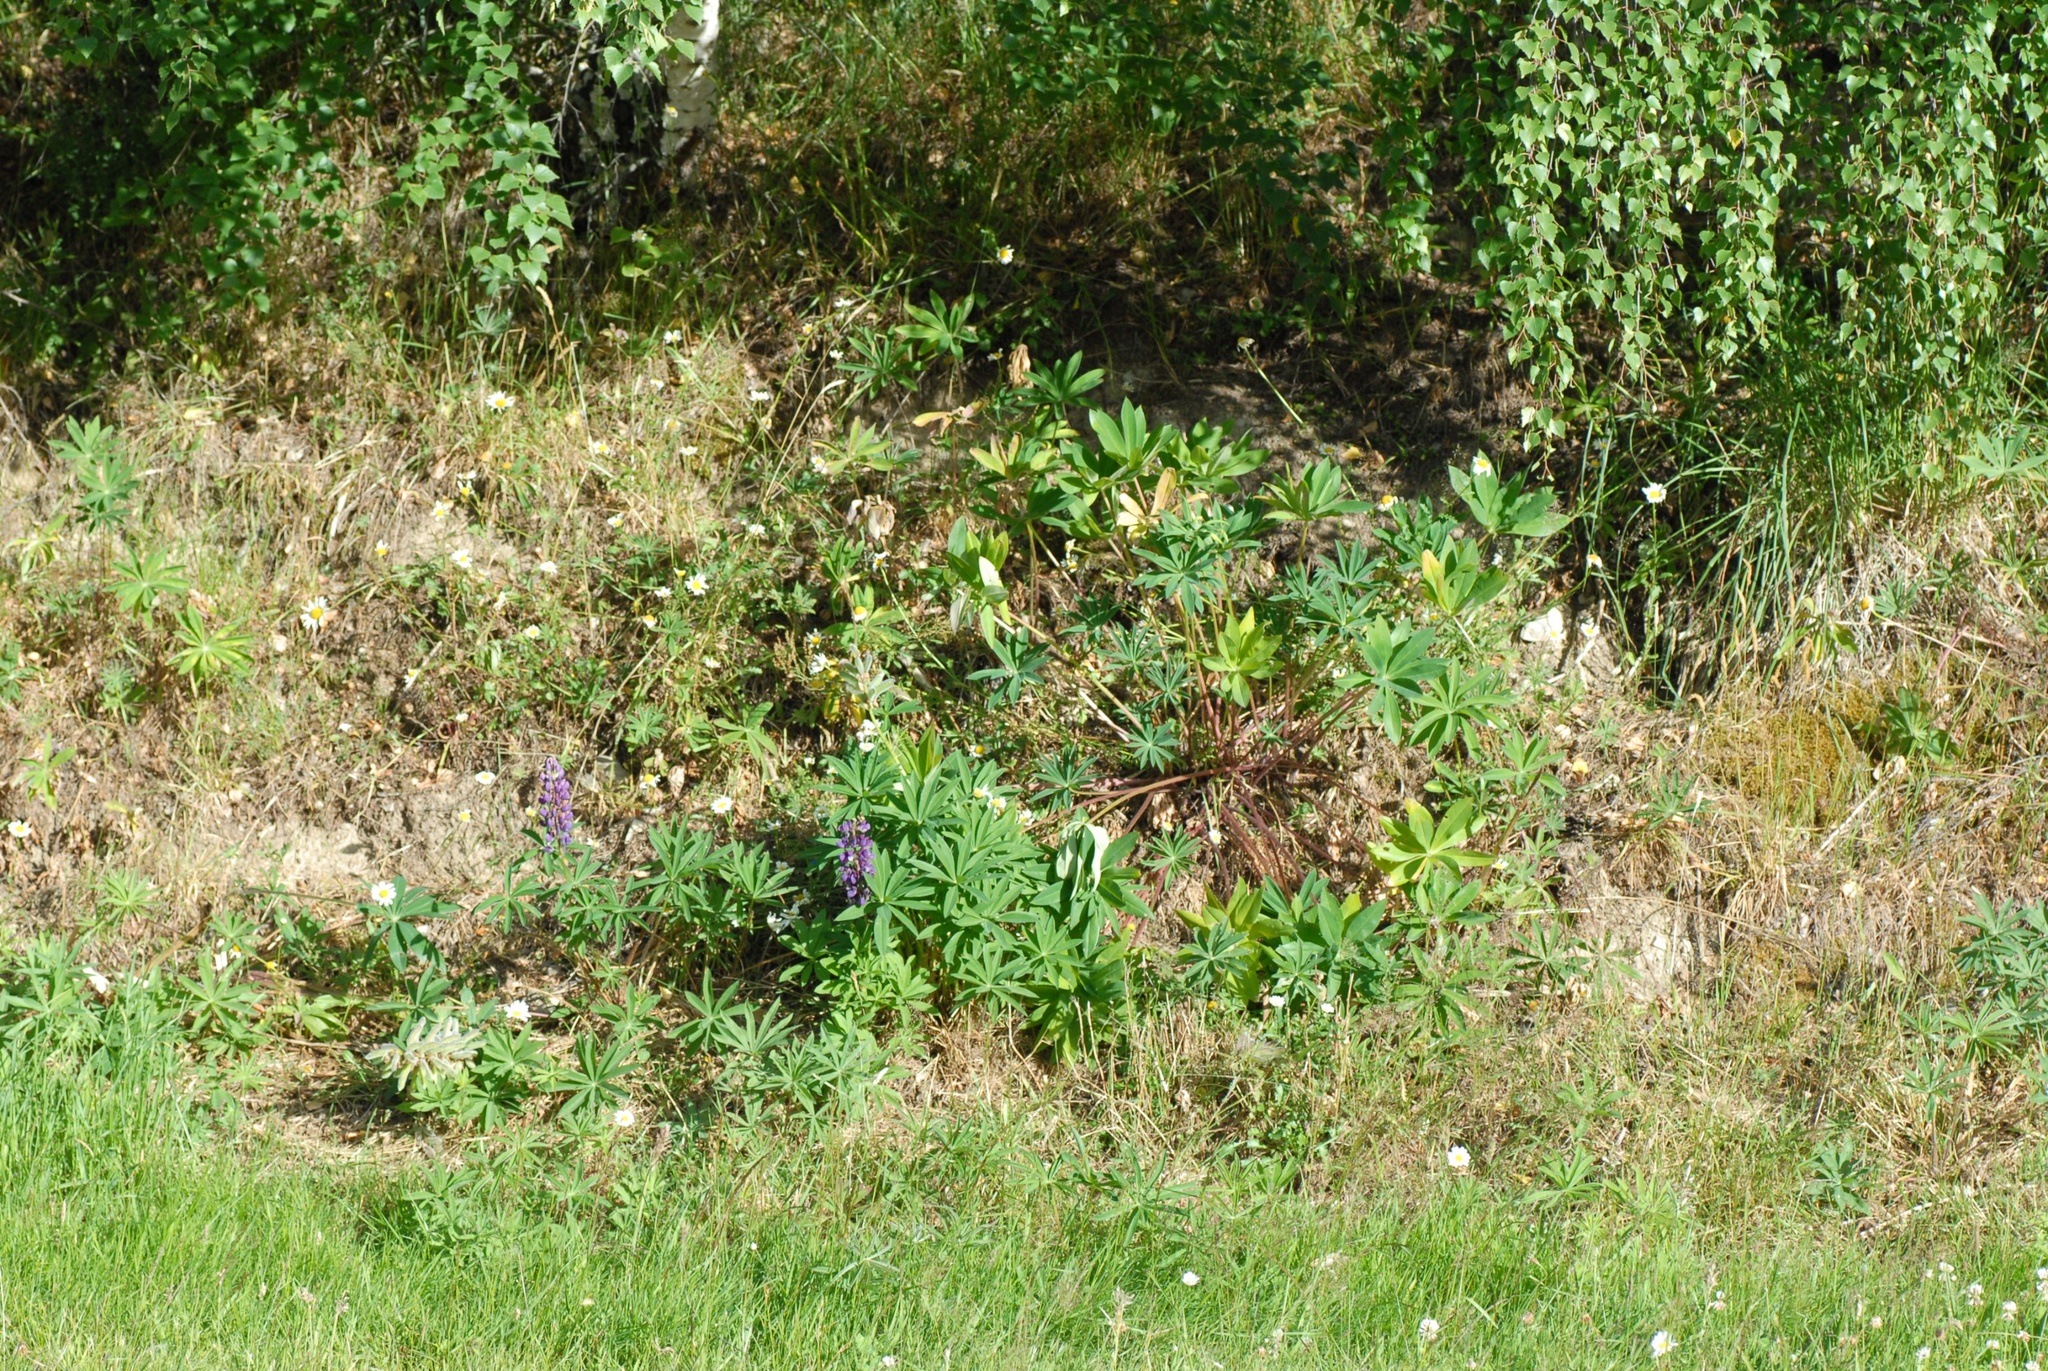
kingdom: Plantae
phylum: Tracheophyta
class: Magnoliopsida
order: Fabales
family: Fabaceae
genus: Lupinus
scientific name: Lupinus polyphyllus
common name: Garden lupin
